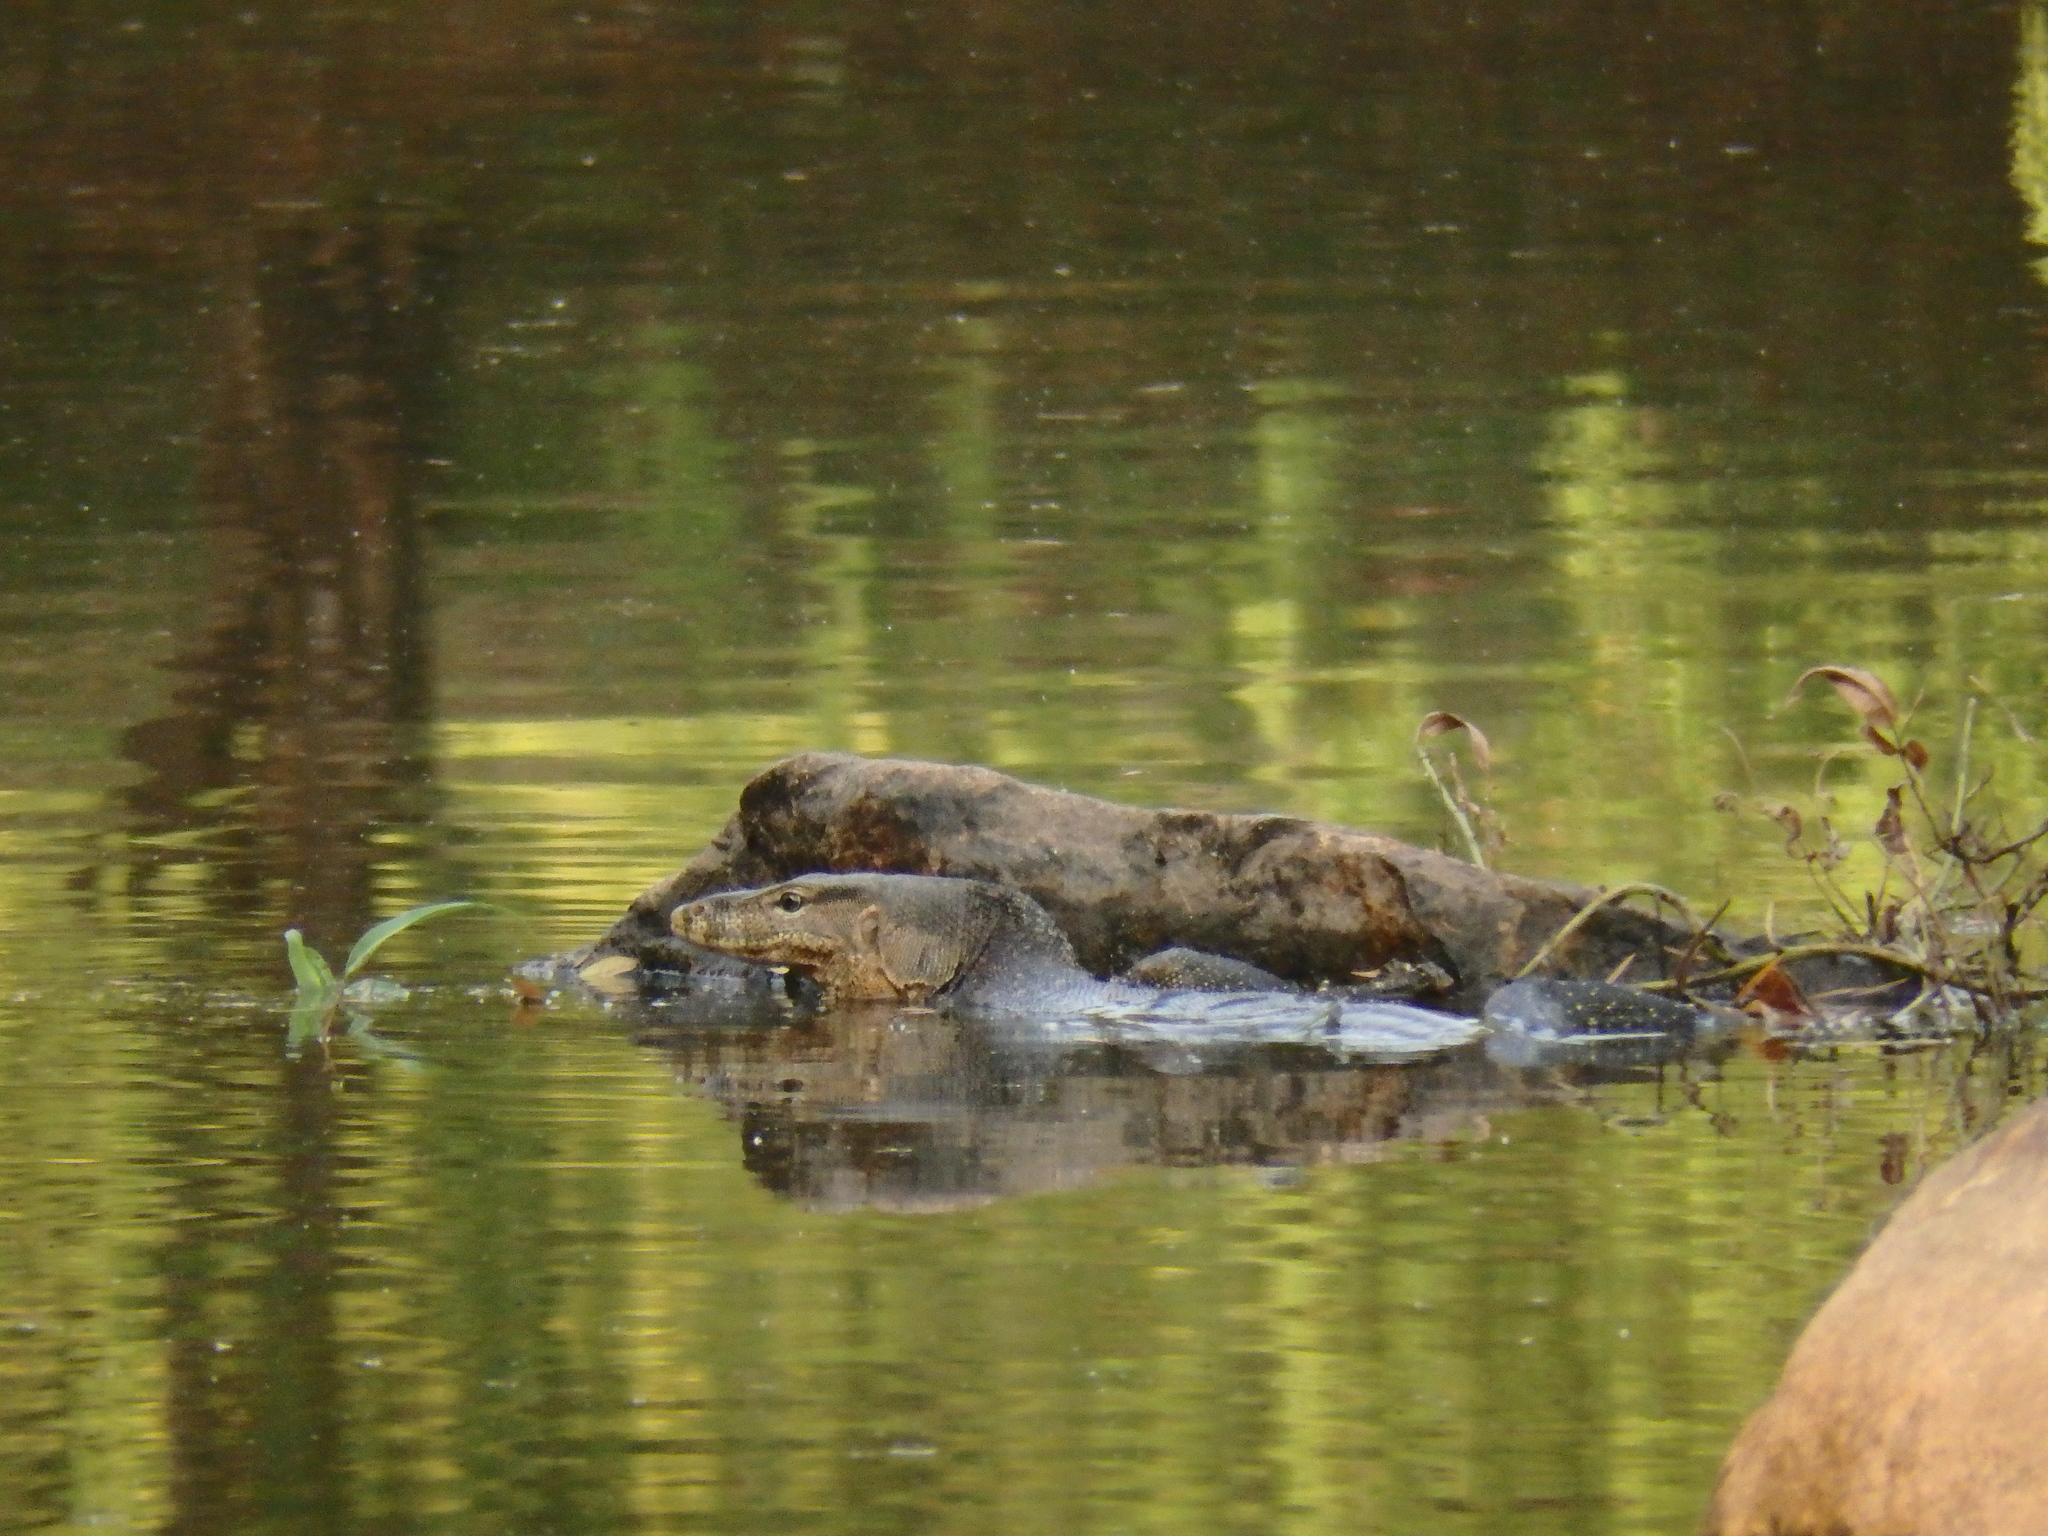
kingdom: Animalia
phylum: Chordata
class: Squamata
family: Varanidae
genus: Varanus
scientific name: Varanus salvator
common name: Common water monitor
